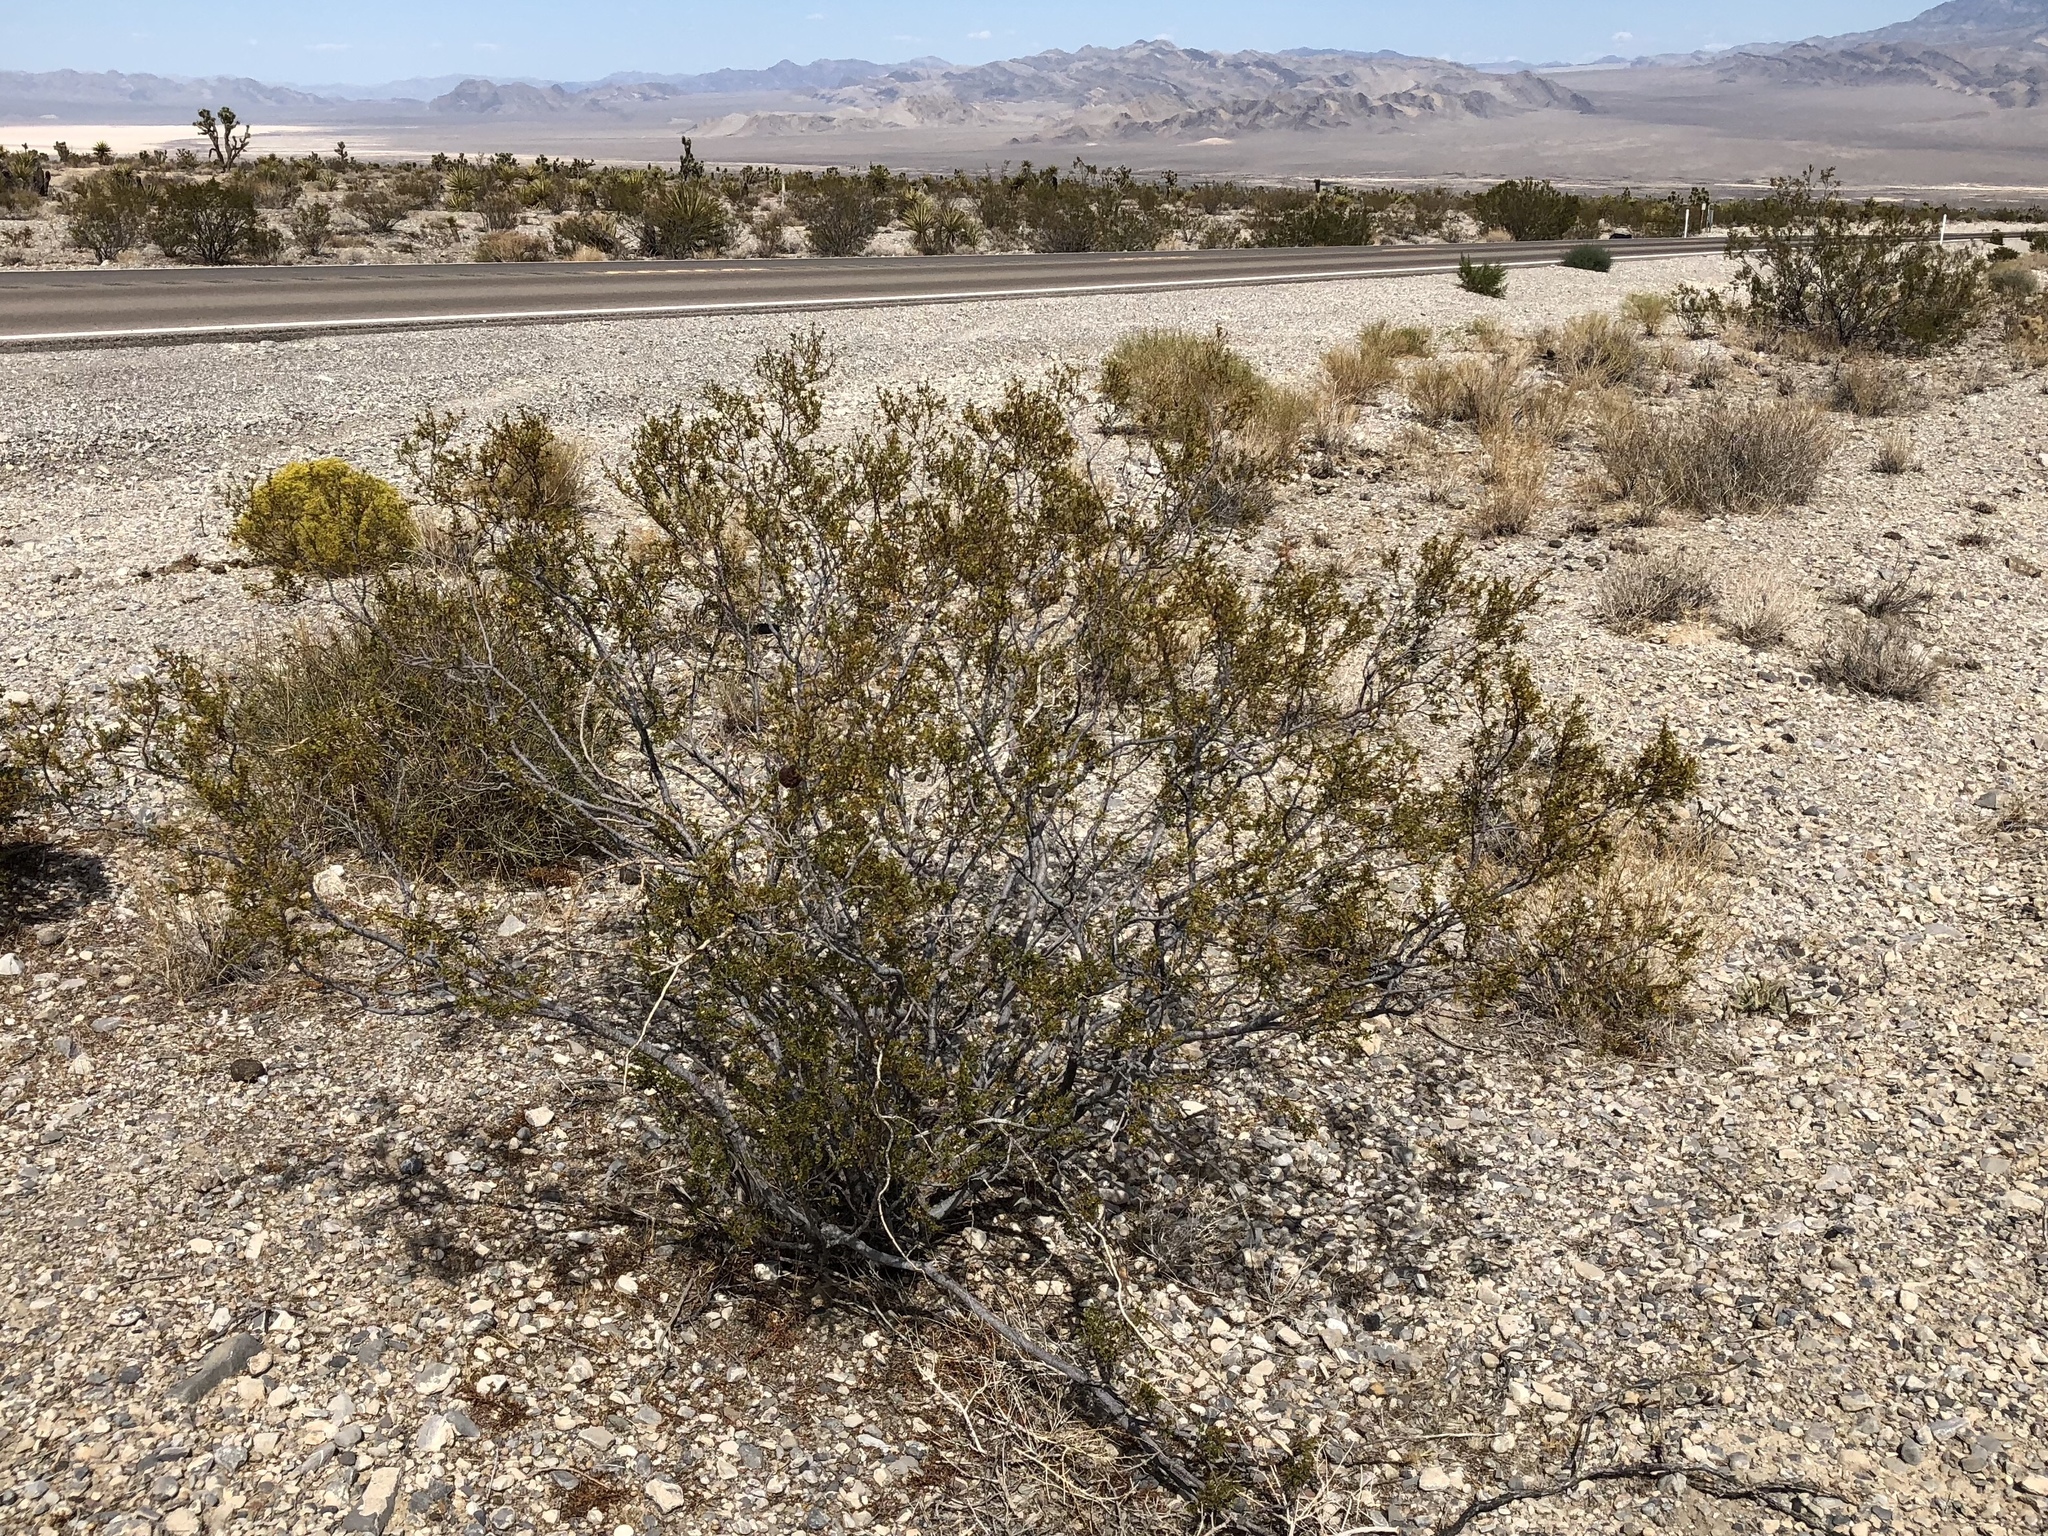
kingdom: Plantae
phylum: Tracheophyta
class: Magnoliopsida
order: Zygophyllales
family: Zygophyllaceae
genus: Larrea
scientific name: Larrea tridentata
